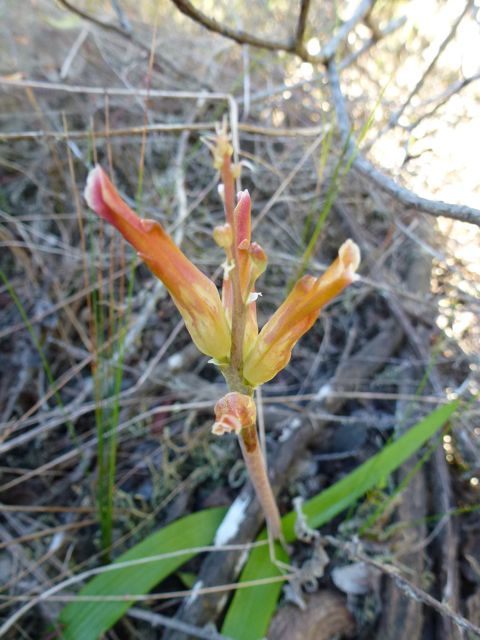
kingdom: Plantae
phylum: Tracheophyta
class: Liliopsida
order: Asparagales
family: Asparagaceae
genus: Lachenalia
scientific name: Lachenalia algoensis
